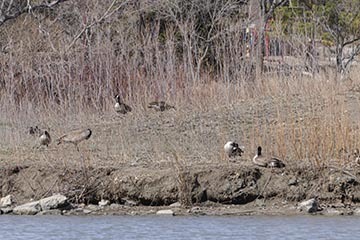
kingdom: Animalia
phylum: Chordata
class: Aves
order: Anseriformes
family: Anatidae
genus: Branta
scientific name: Branta canadensis
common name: Canada goose
